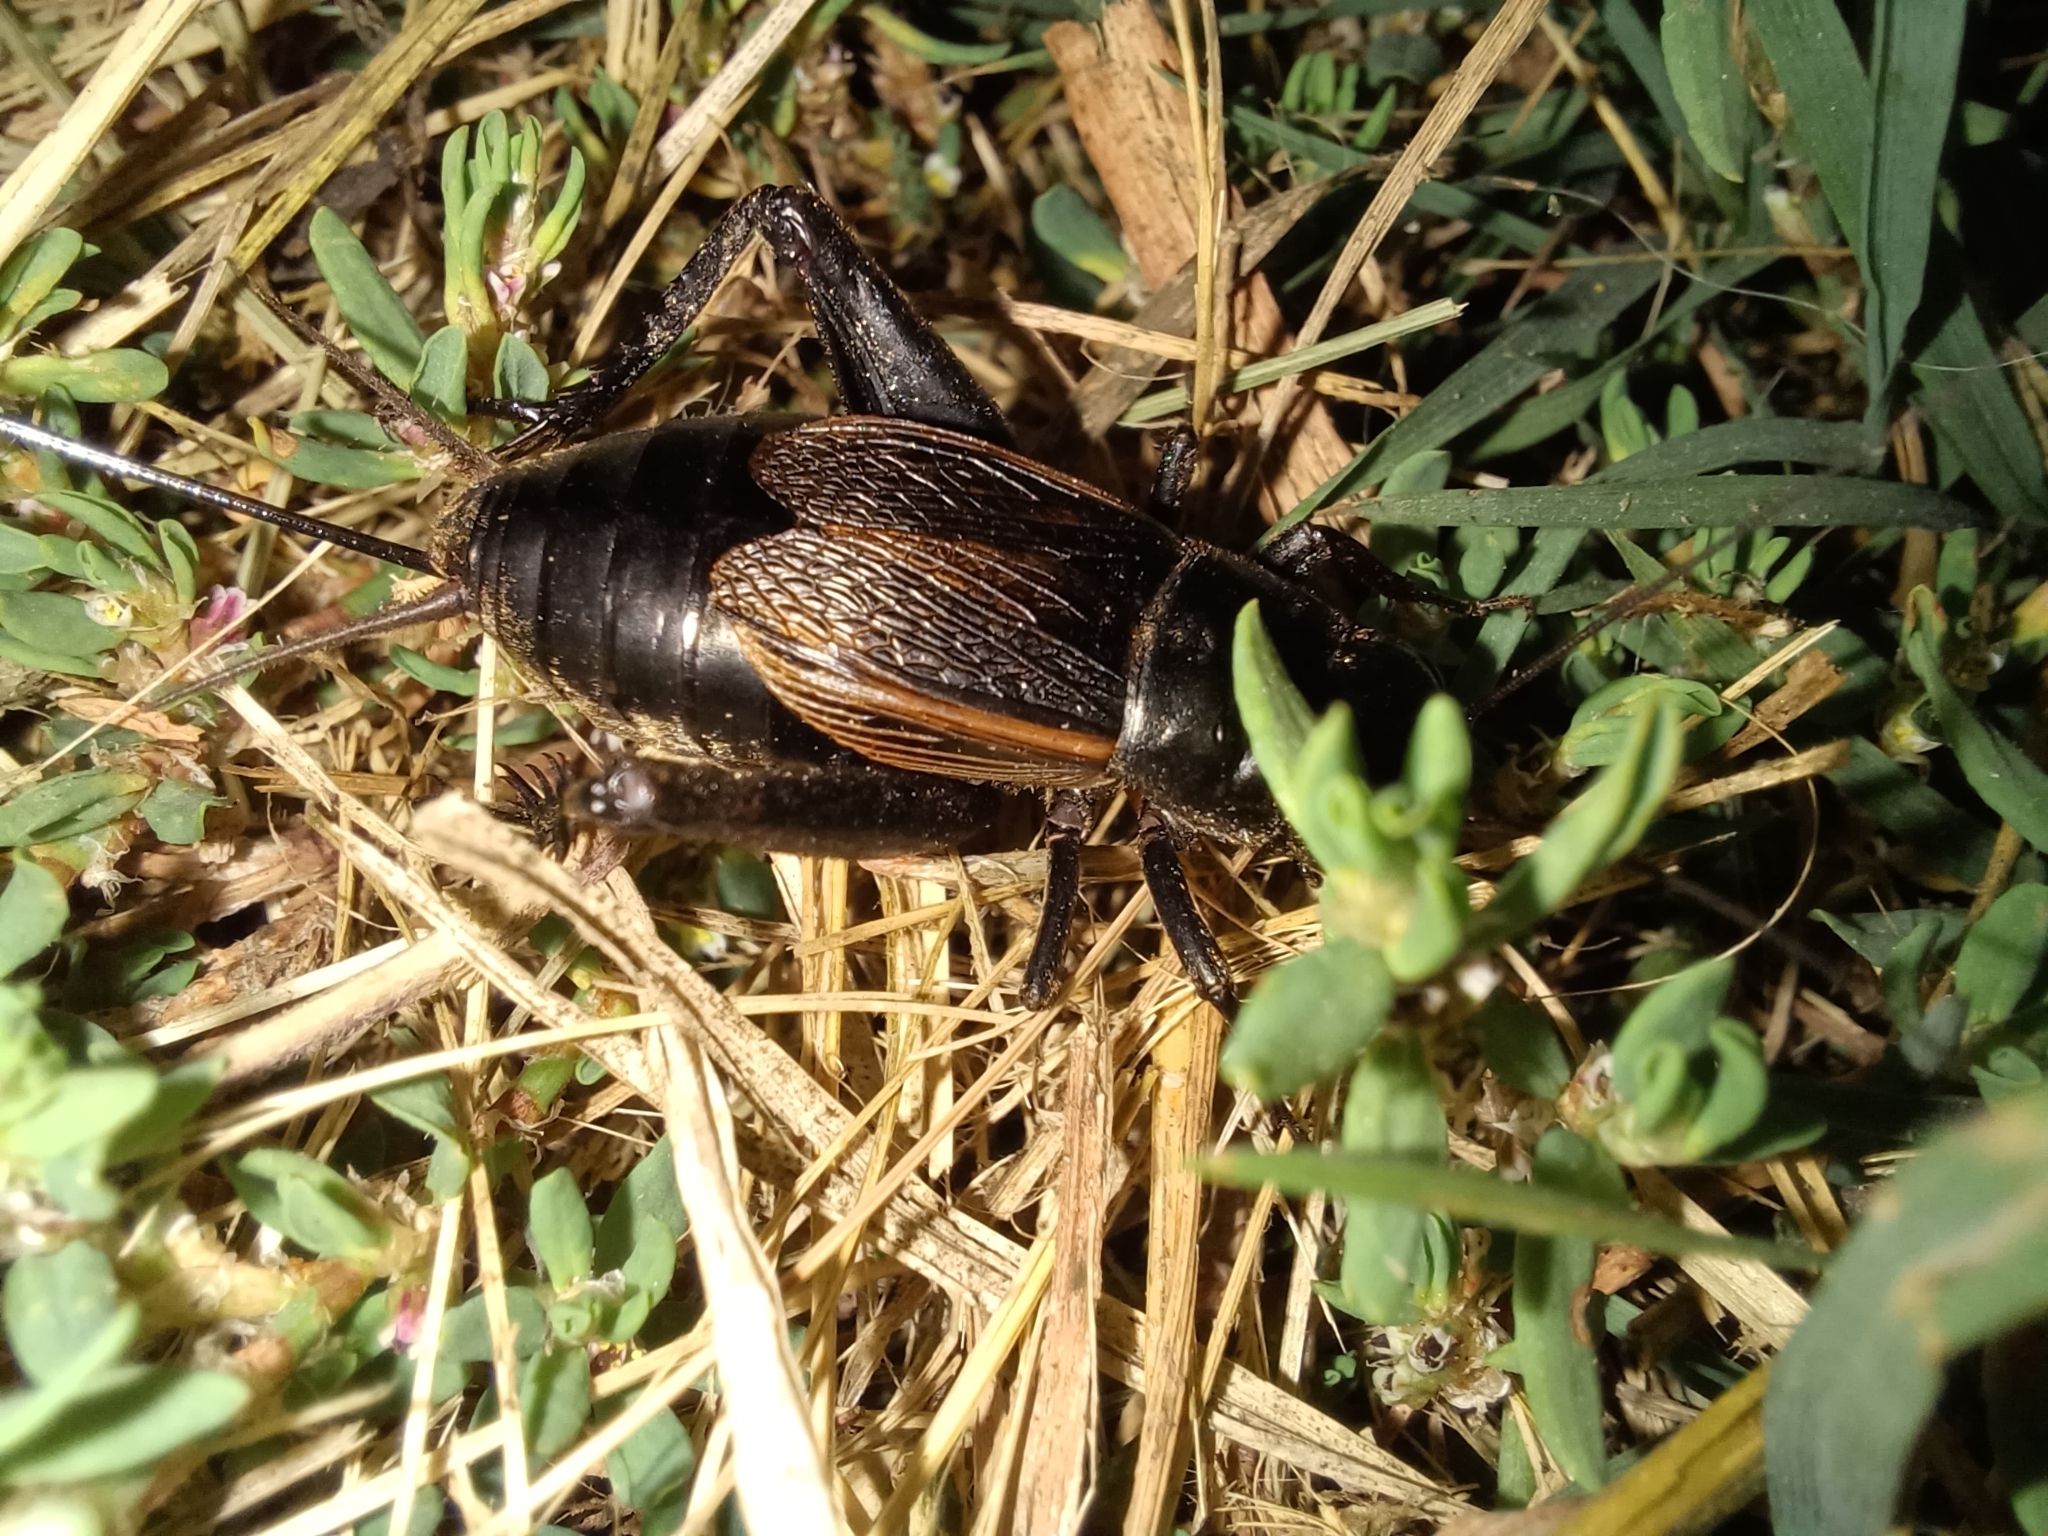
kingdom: Animalia
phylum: Arthropoda
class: Insecta
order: Orthoptera
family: Gryllidae
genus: Gryllus
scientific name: Gryllus pennsylvanicus
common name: Fall field cricket
